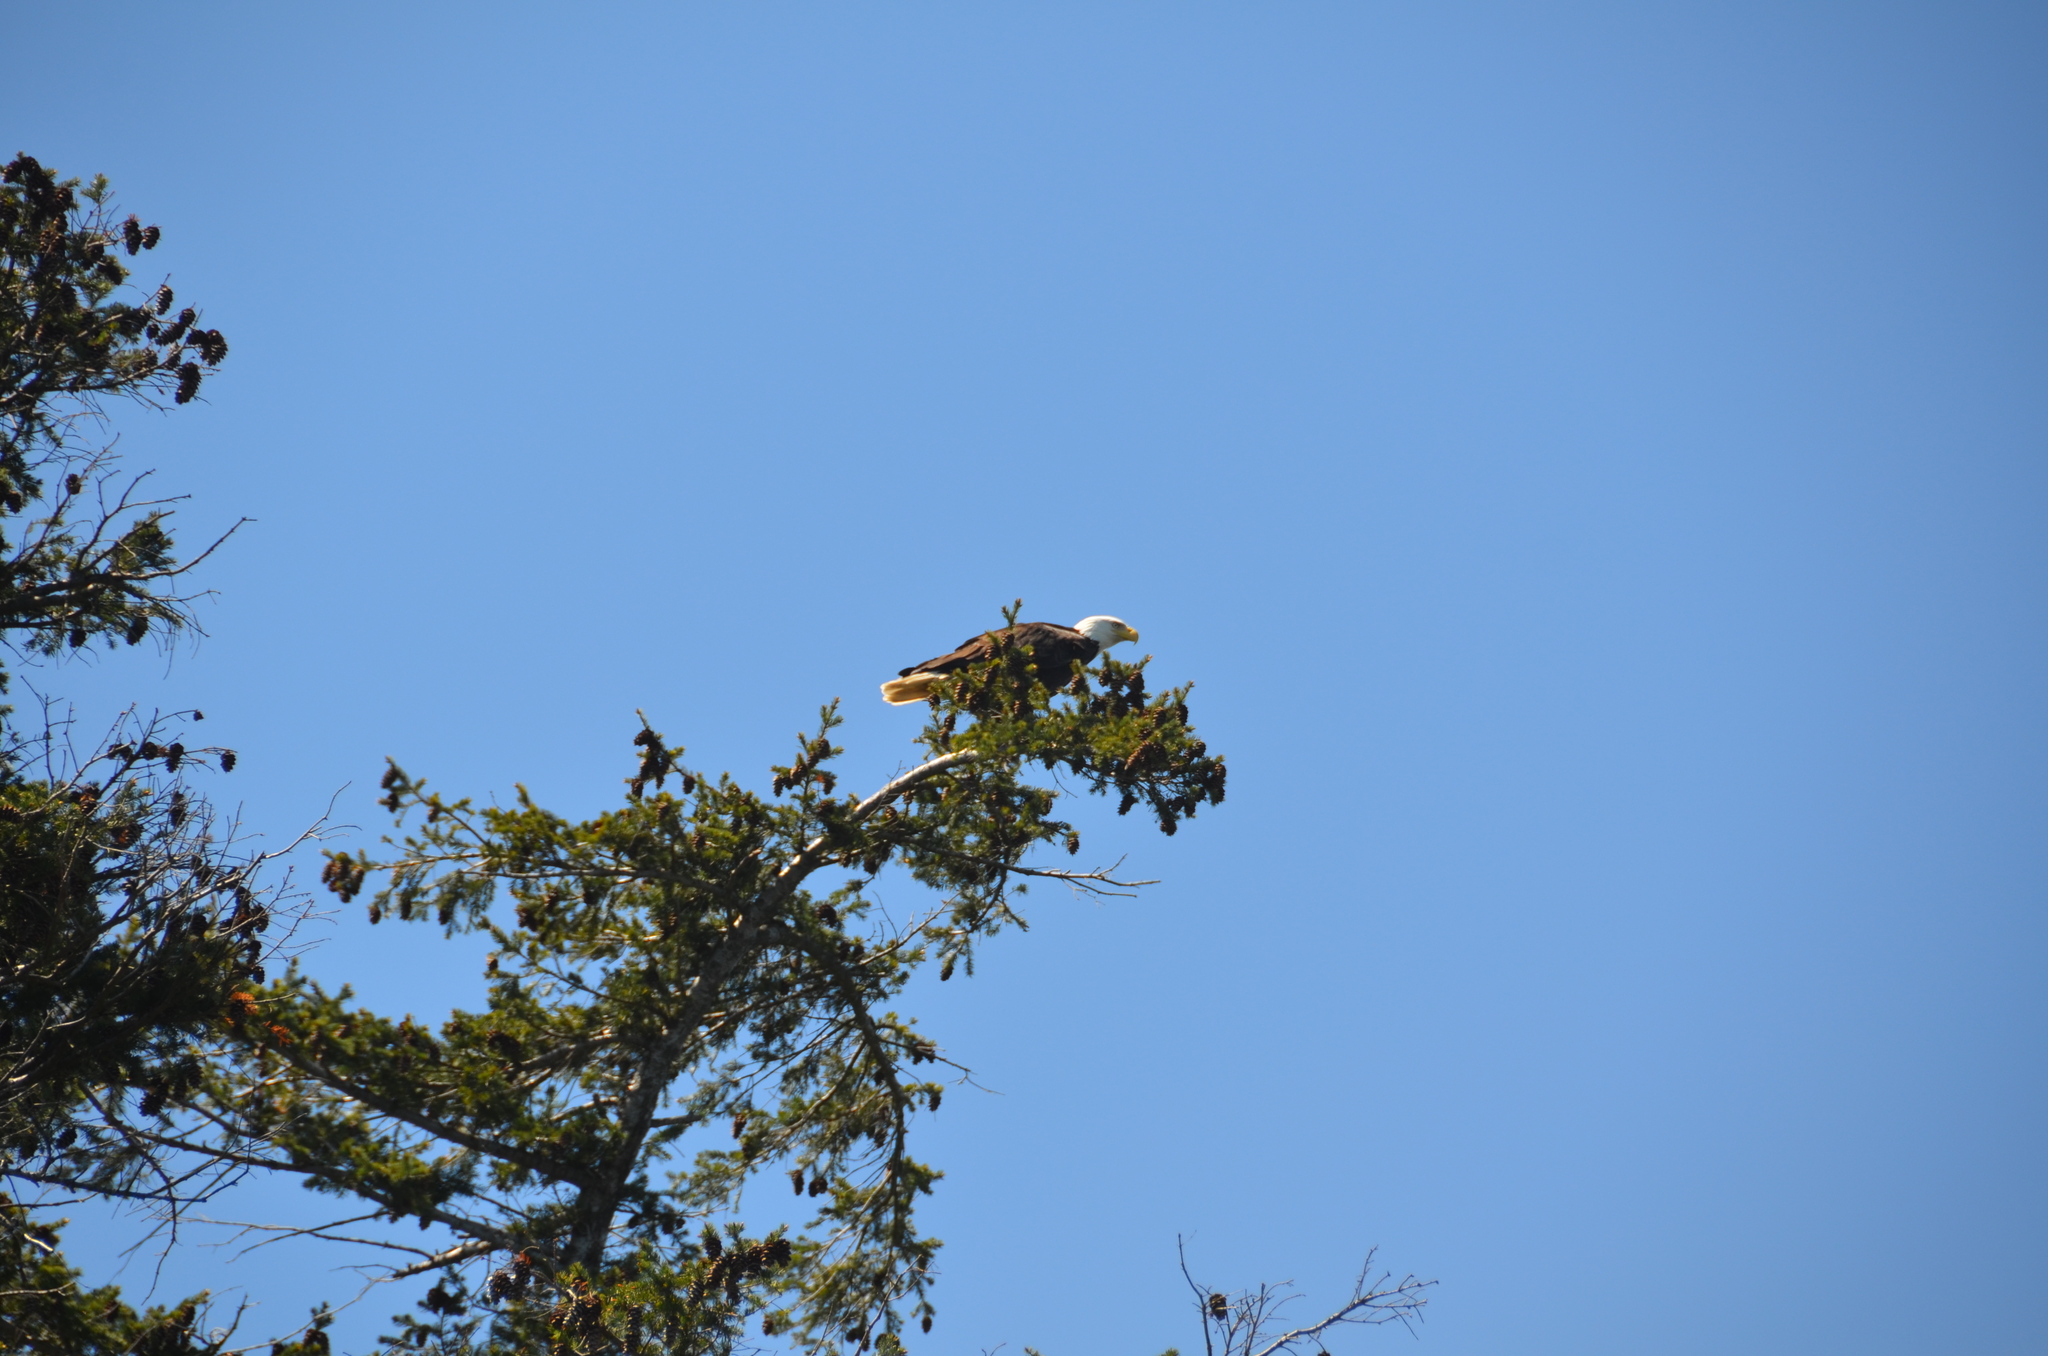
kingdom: Animalia
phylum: Chordata
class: Aves
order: Accipitriformes
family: Accipitridae
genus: Haliaeetus
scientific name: Haliaeetus leucocephalus
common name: Bald eagle
